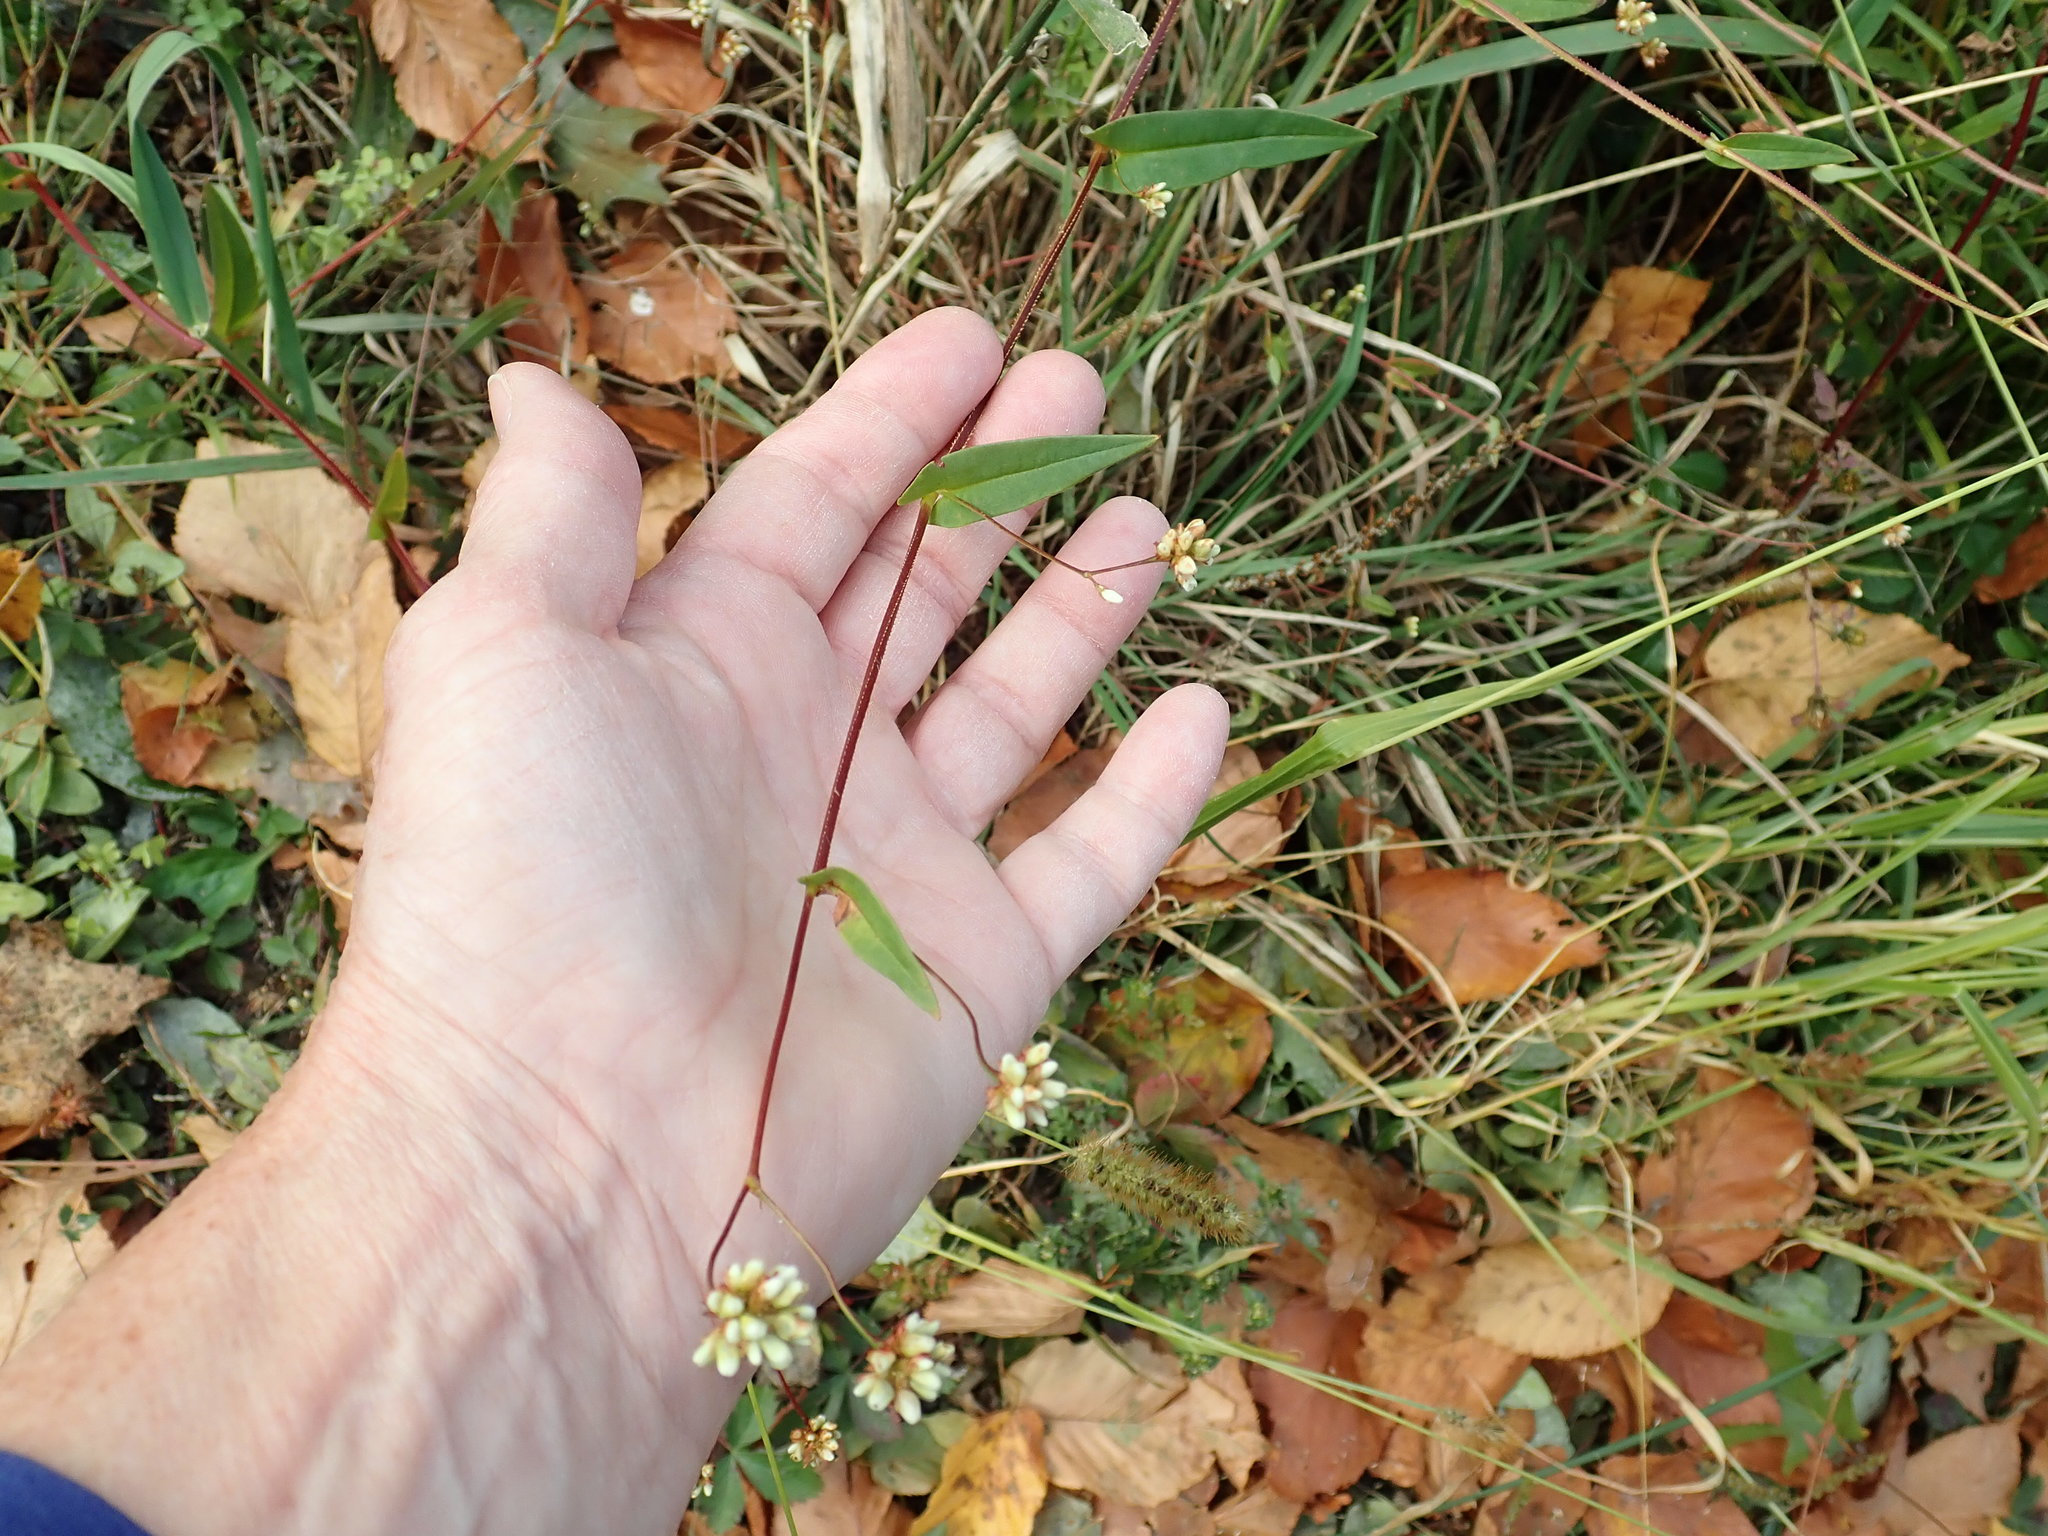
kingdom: Plantae
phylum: Tracheophyta
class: Magnoliopsida
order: Caryophyllales
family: Polygonaceae
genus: Persicaria
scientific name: Persicaria sagittata
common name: American tearthumb
